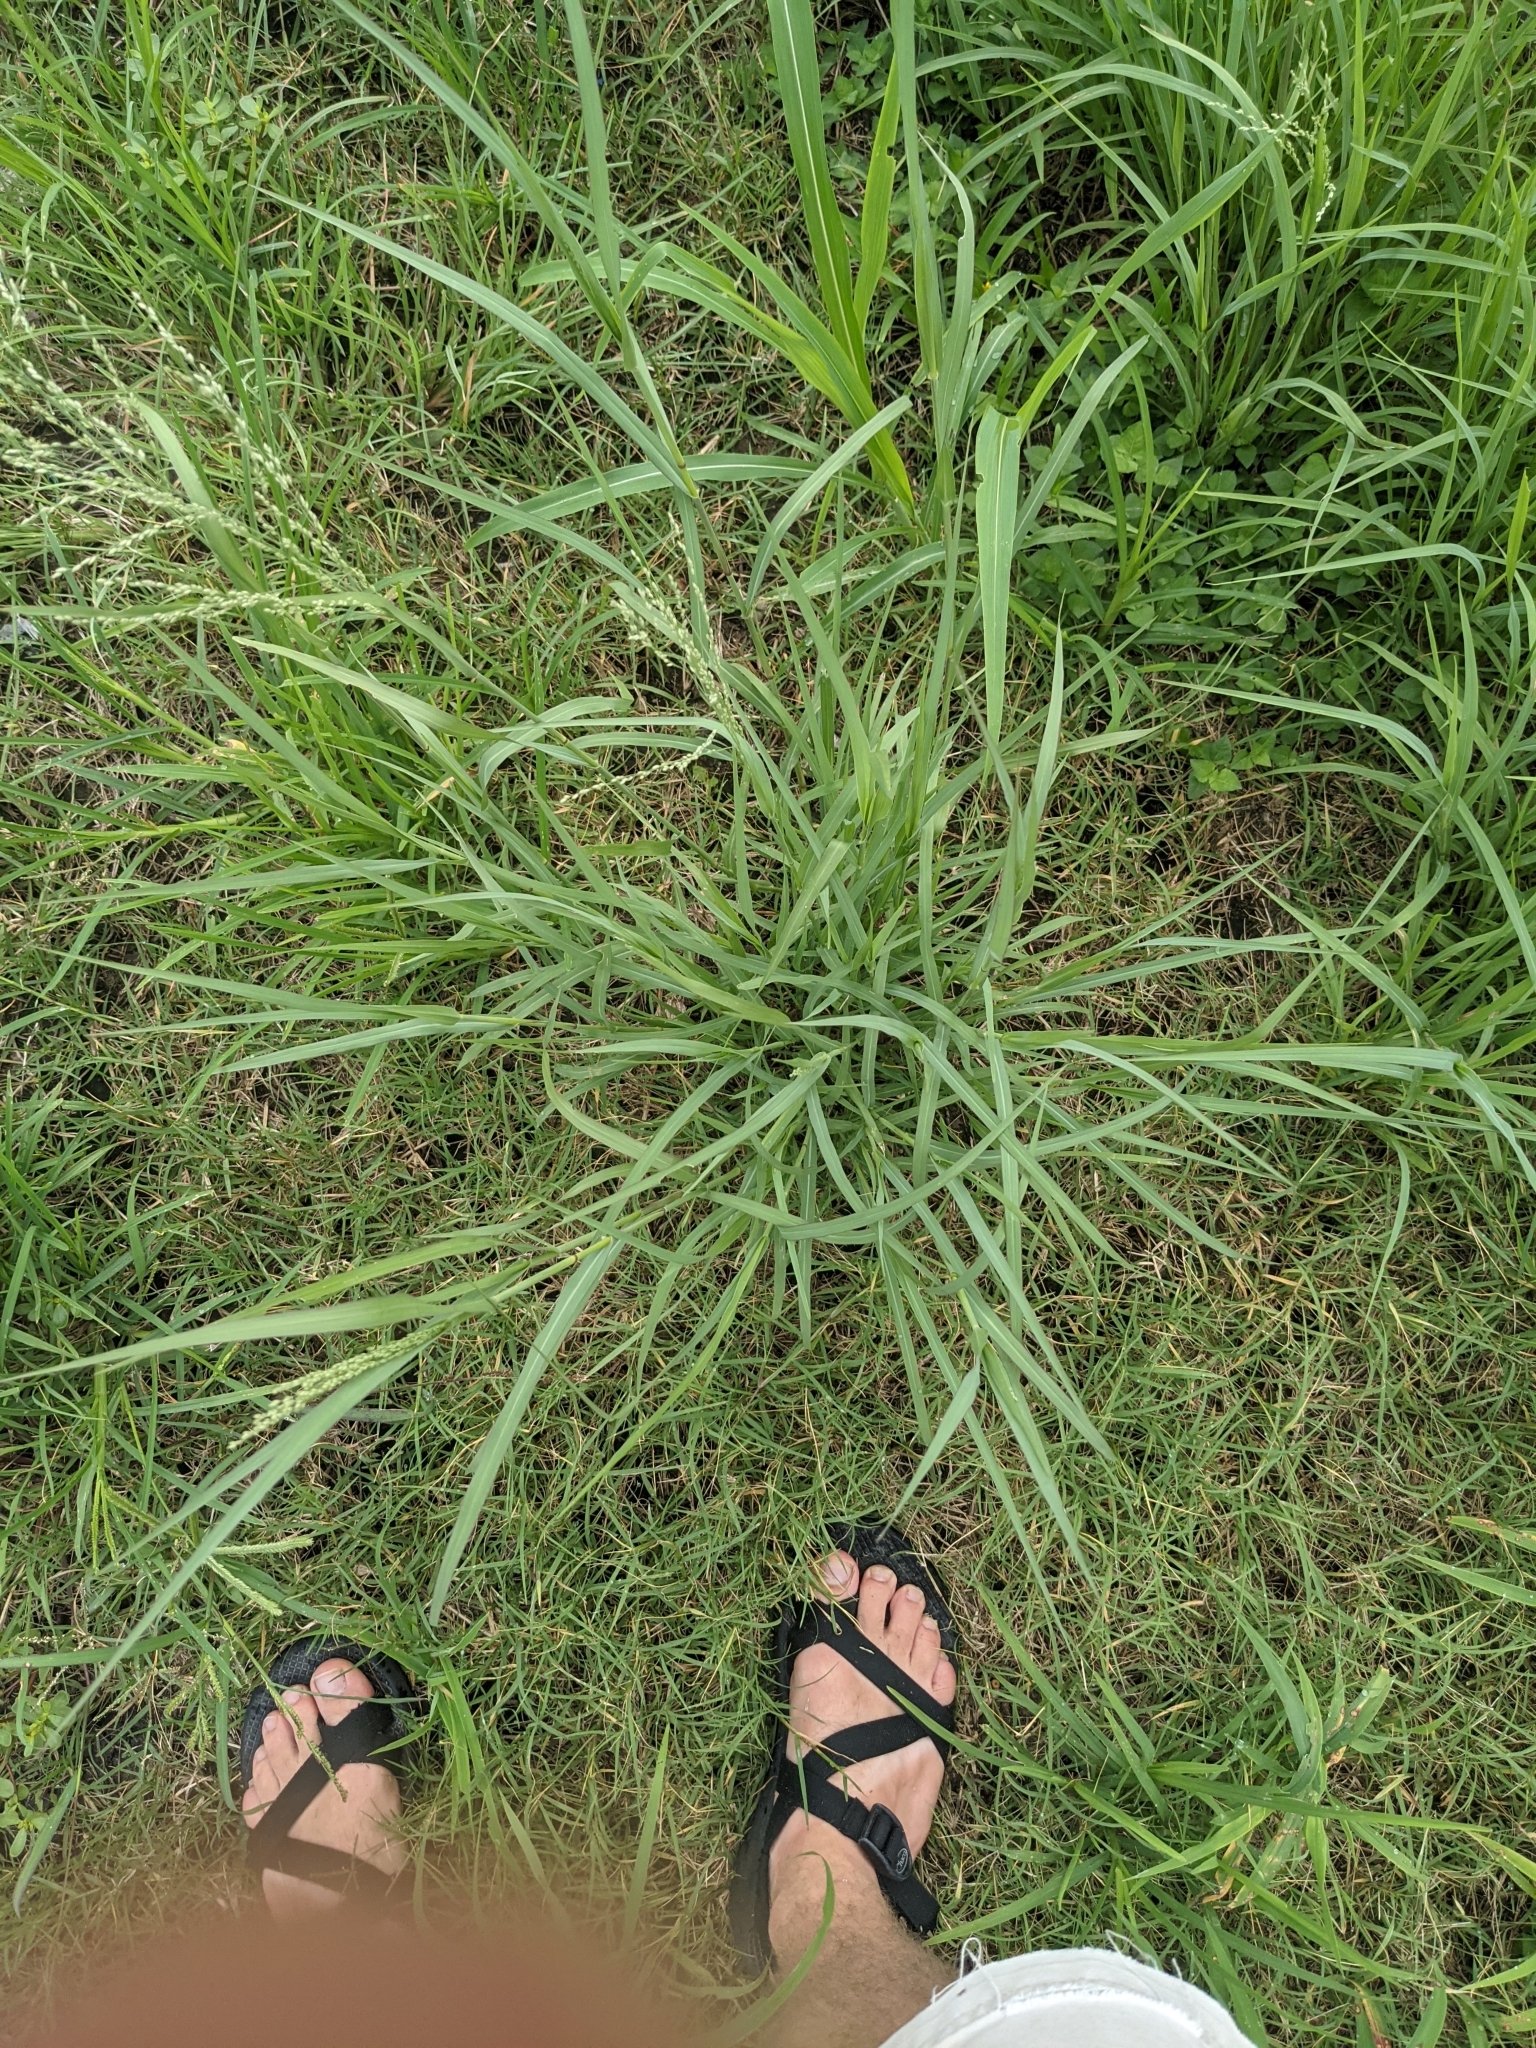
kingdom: Plantae
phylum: Tracheophyta
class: Liliopsida
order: Poales
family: Poaceae
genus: Panicum
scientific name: Panicum coloratum
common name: Kleingrass
